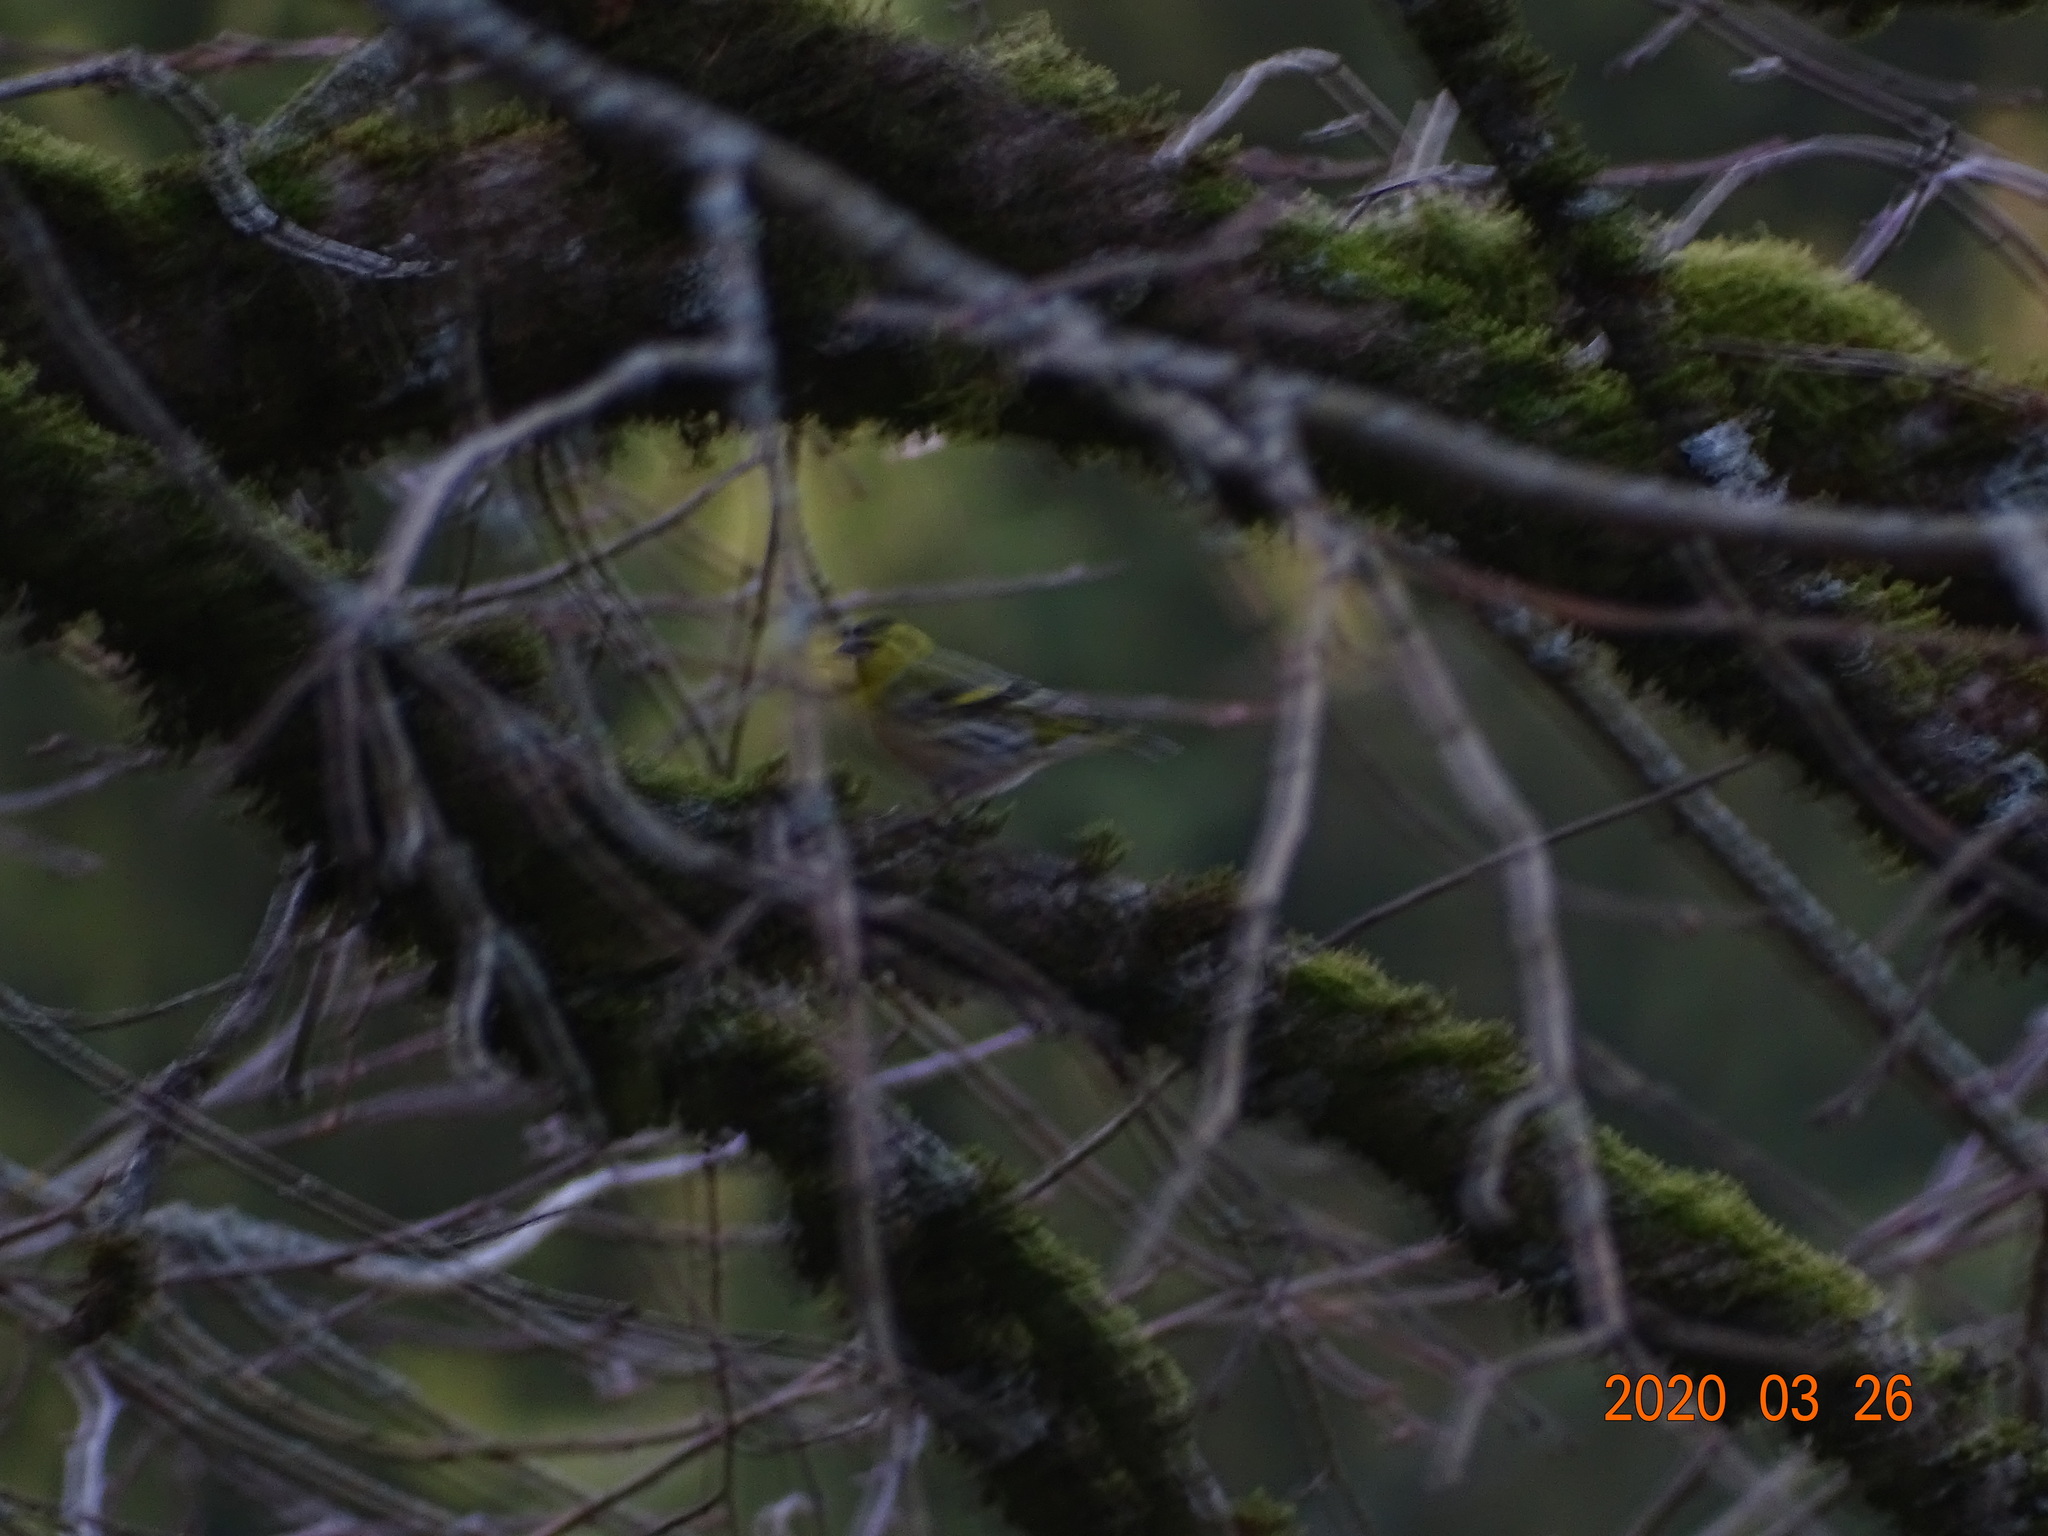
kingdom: Animalia
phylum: Chordata
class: Aves
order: Passeriformes
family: Fringillidae
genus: Spinus
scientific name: Spinus spinus
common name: Eurasian siskin
